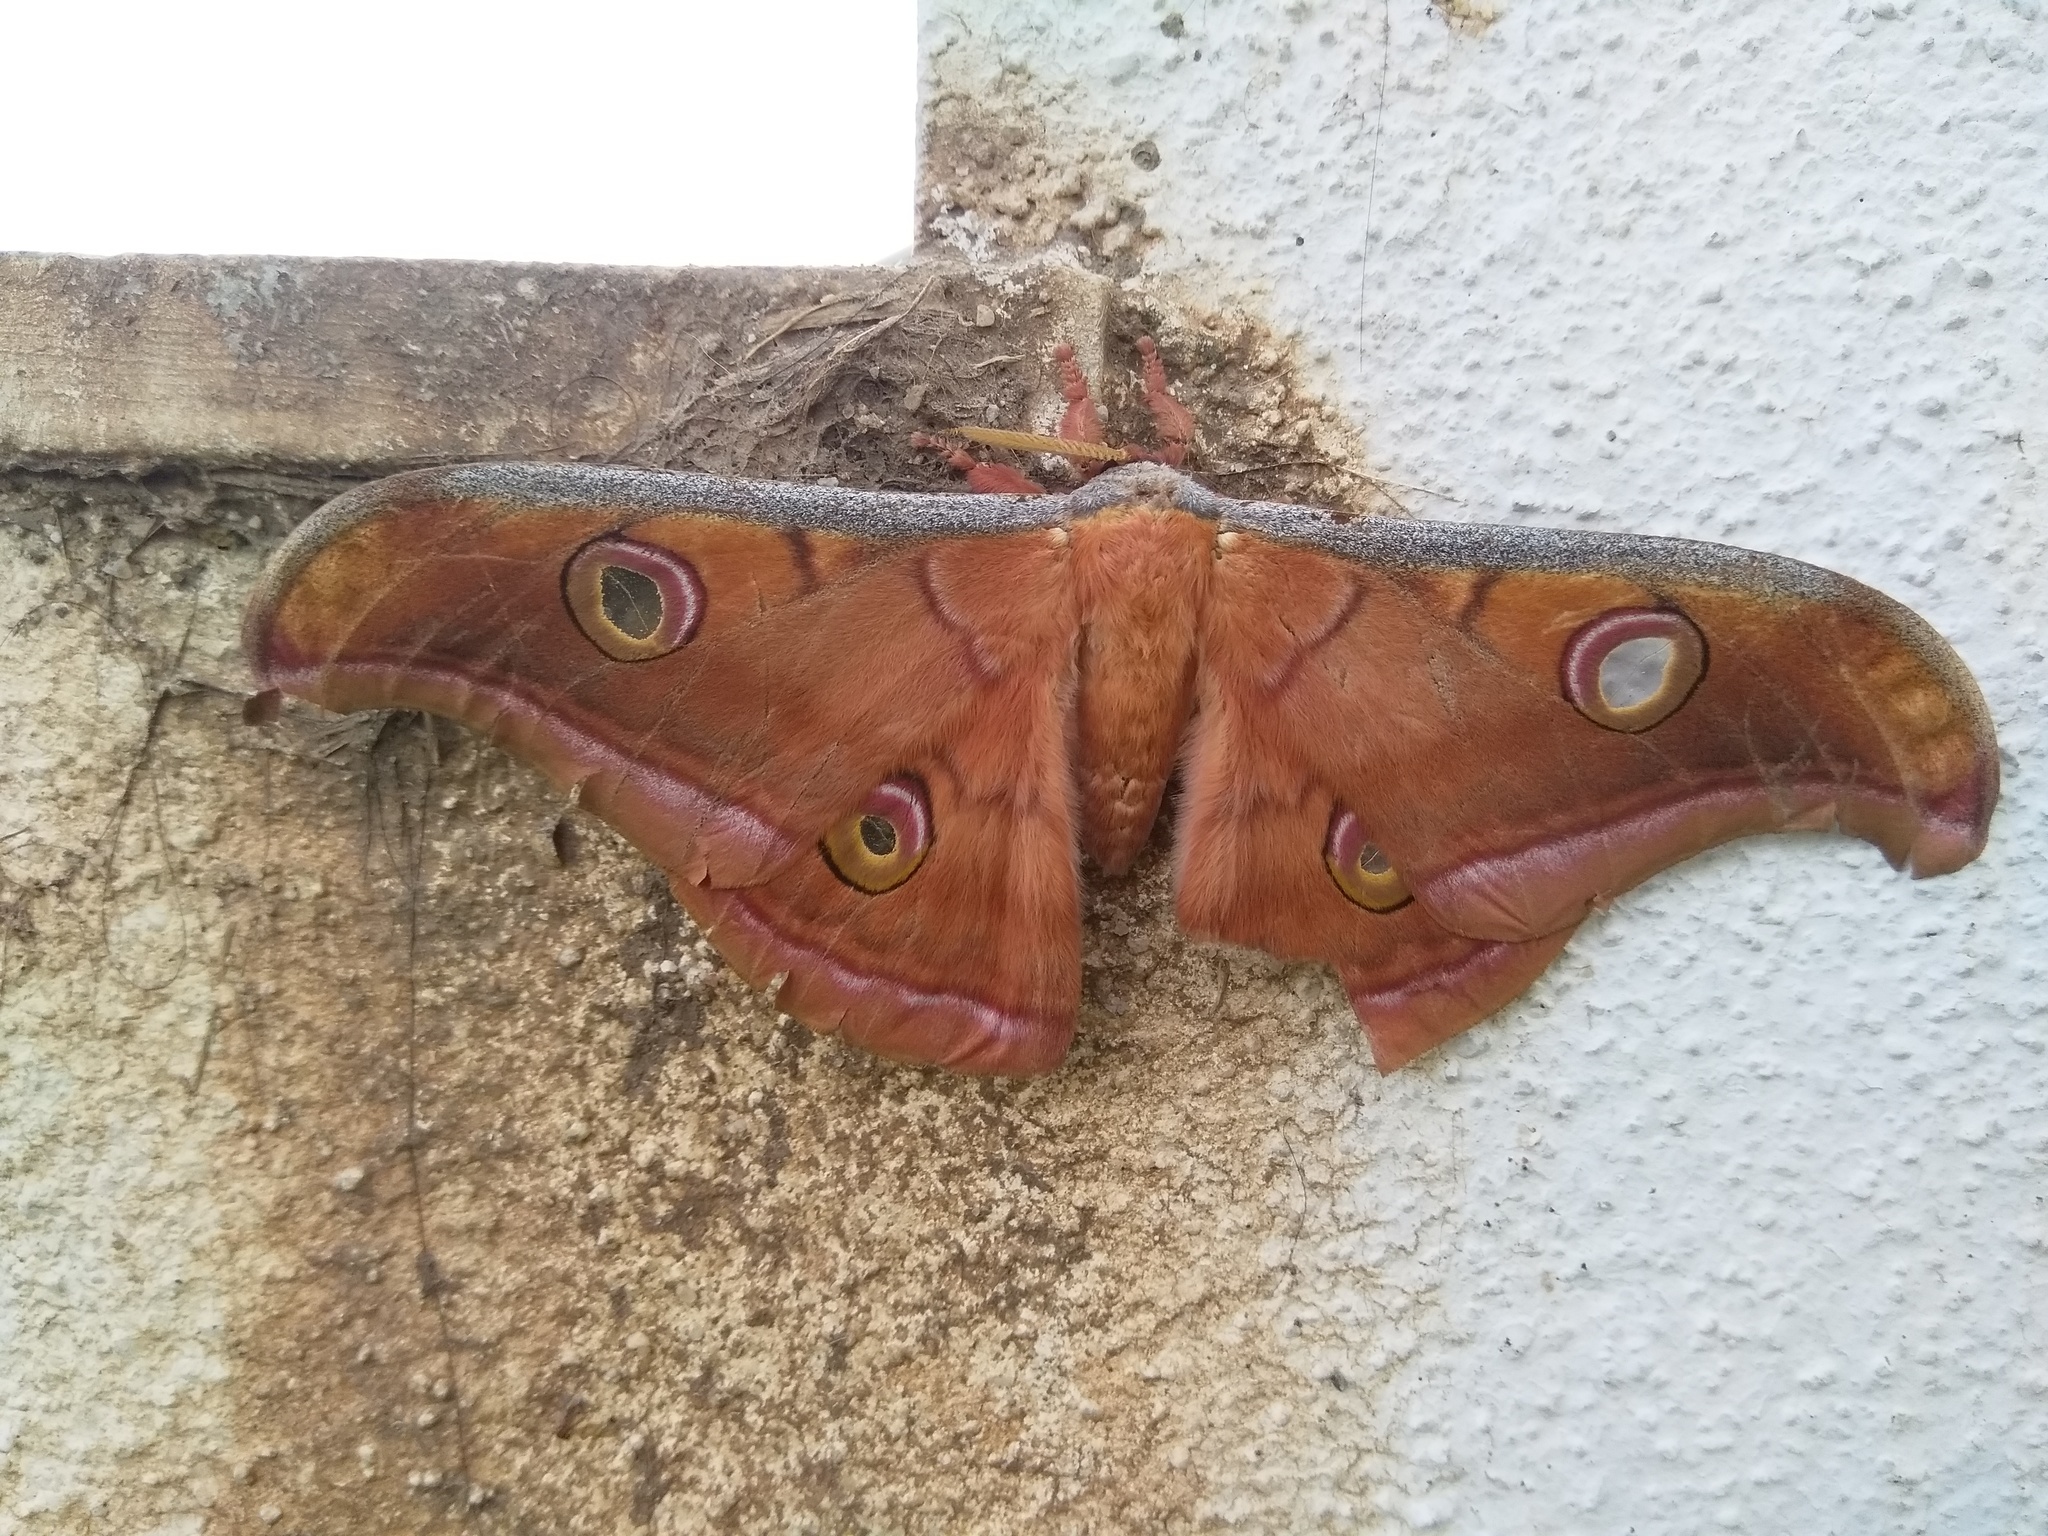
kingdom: Animalia
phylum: Arthropoda
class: Insecta
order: Lepidoptera
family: Saturniidae
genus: Antheraea
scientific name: Antheraea paphia
